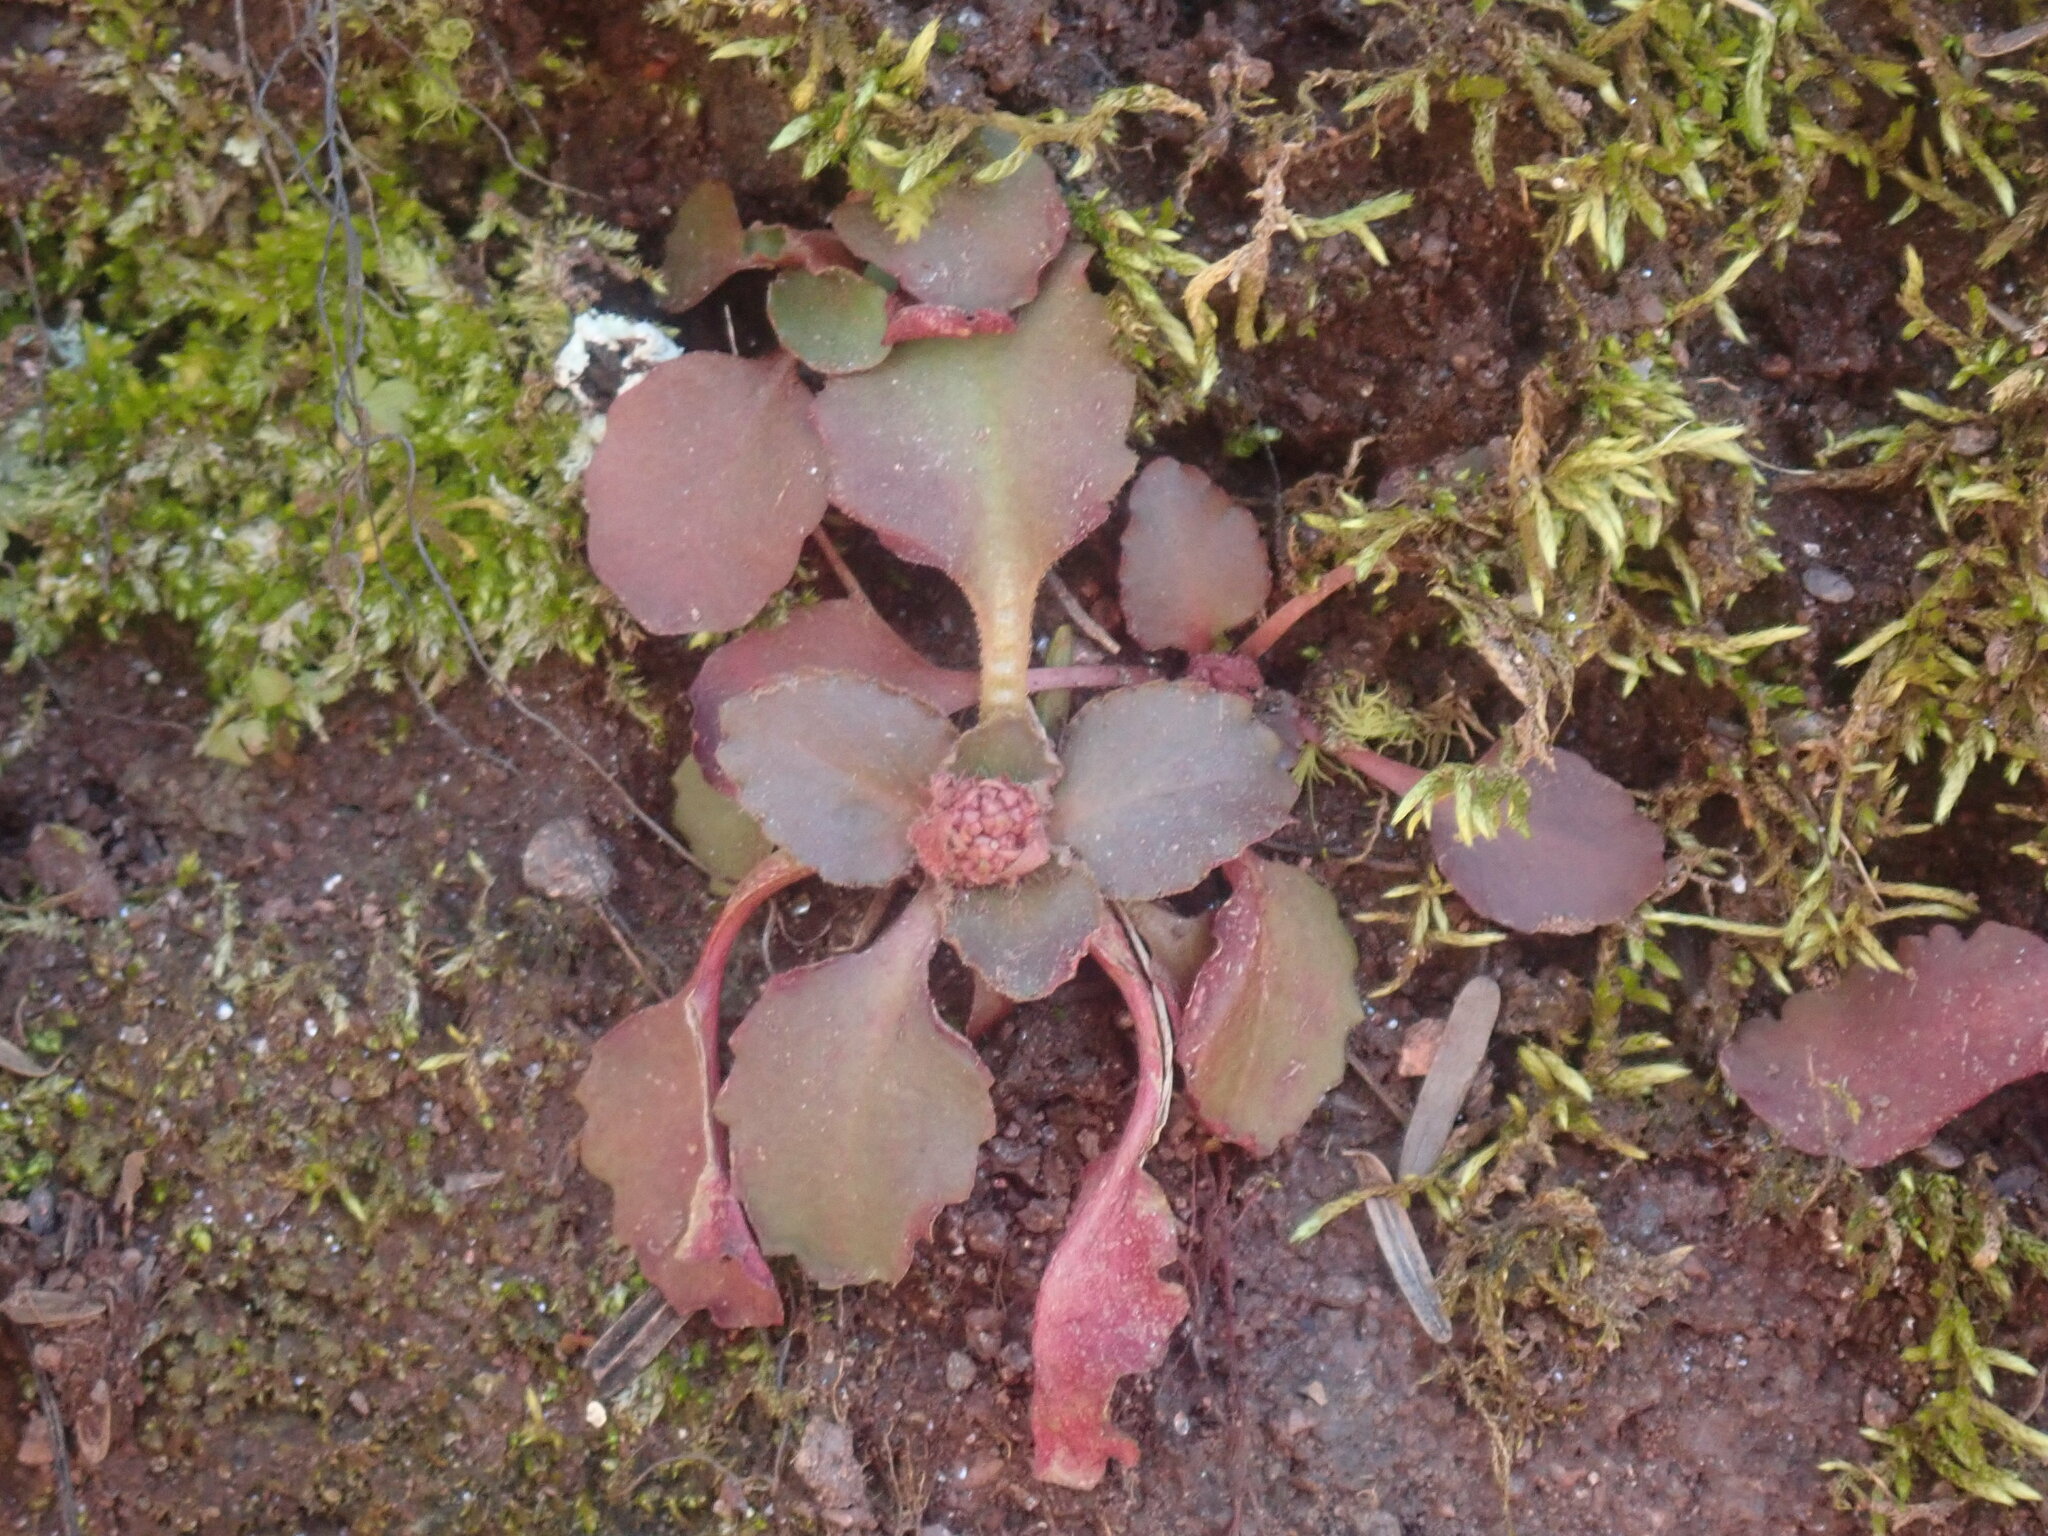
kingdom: Plantae
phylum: Tracheophyta
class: Magnoliopsida
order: Saxifragales
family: Saxifragaceae
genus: Micranthes
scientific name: Micranthes virginiensis
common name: Early saxifrage
